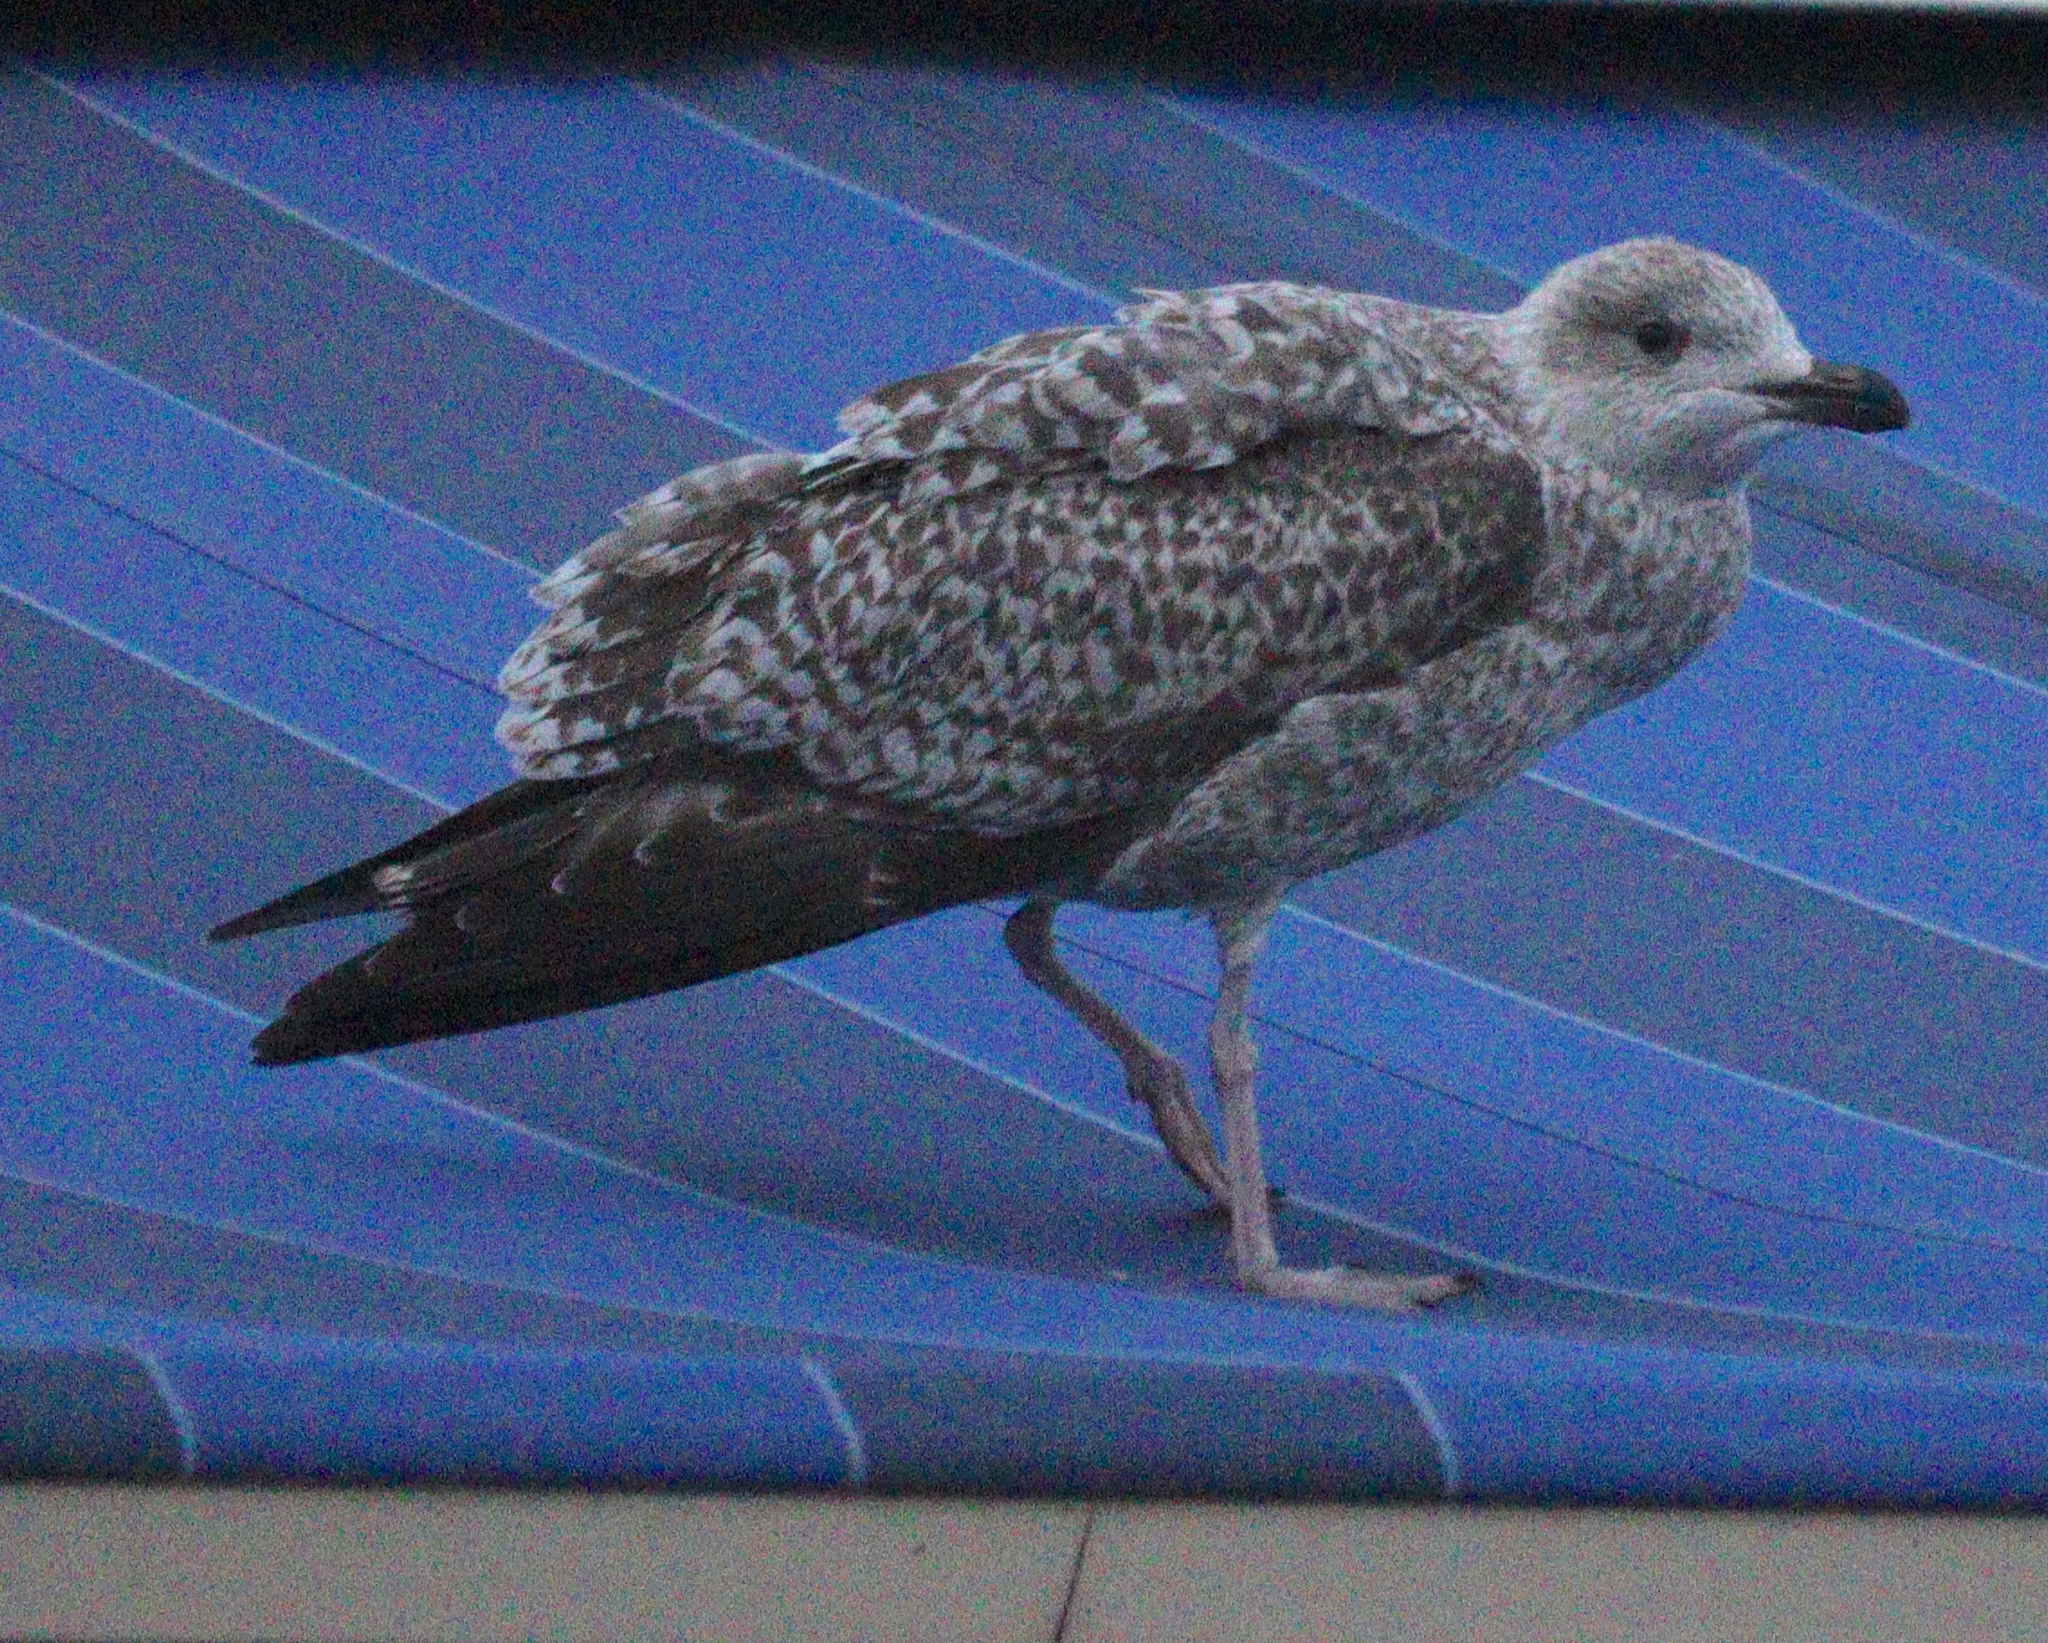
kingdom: Animalia
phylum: Chordata
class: Aves
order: Charadriiformes
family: Laridae
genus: Larus
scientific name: Larus argentatus
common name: Herring gull
